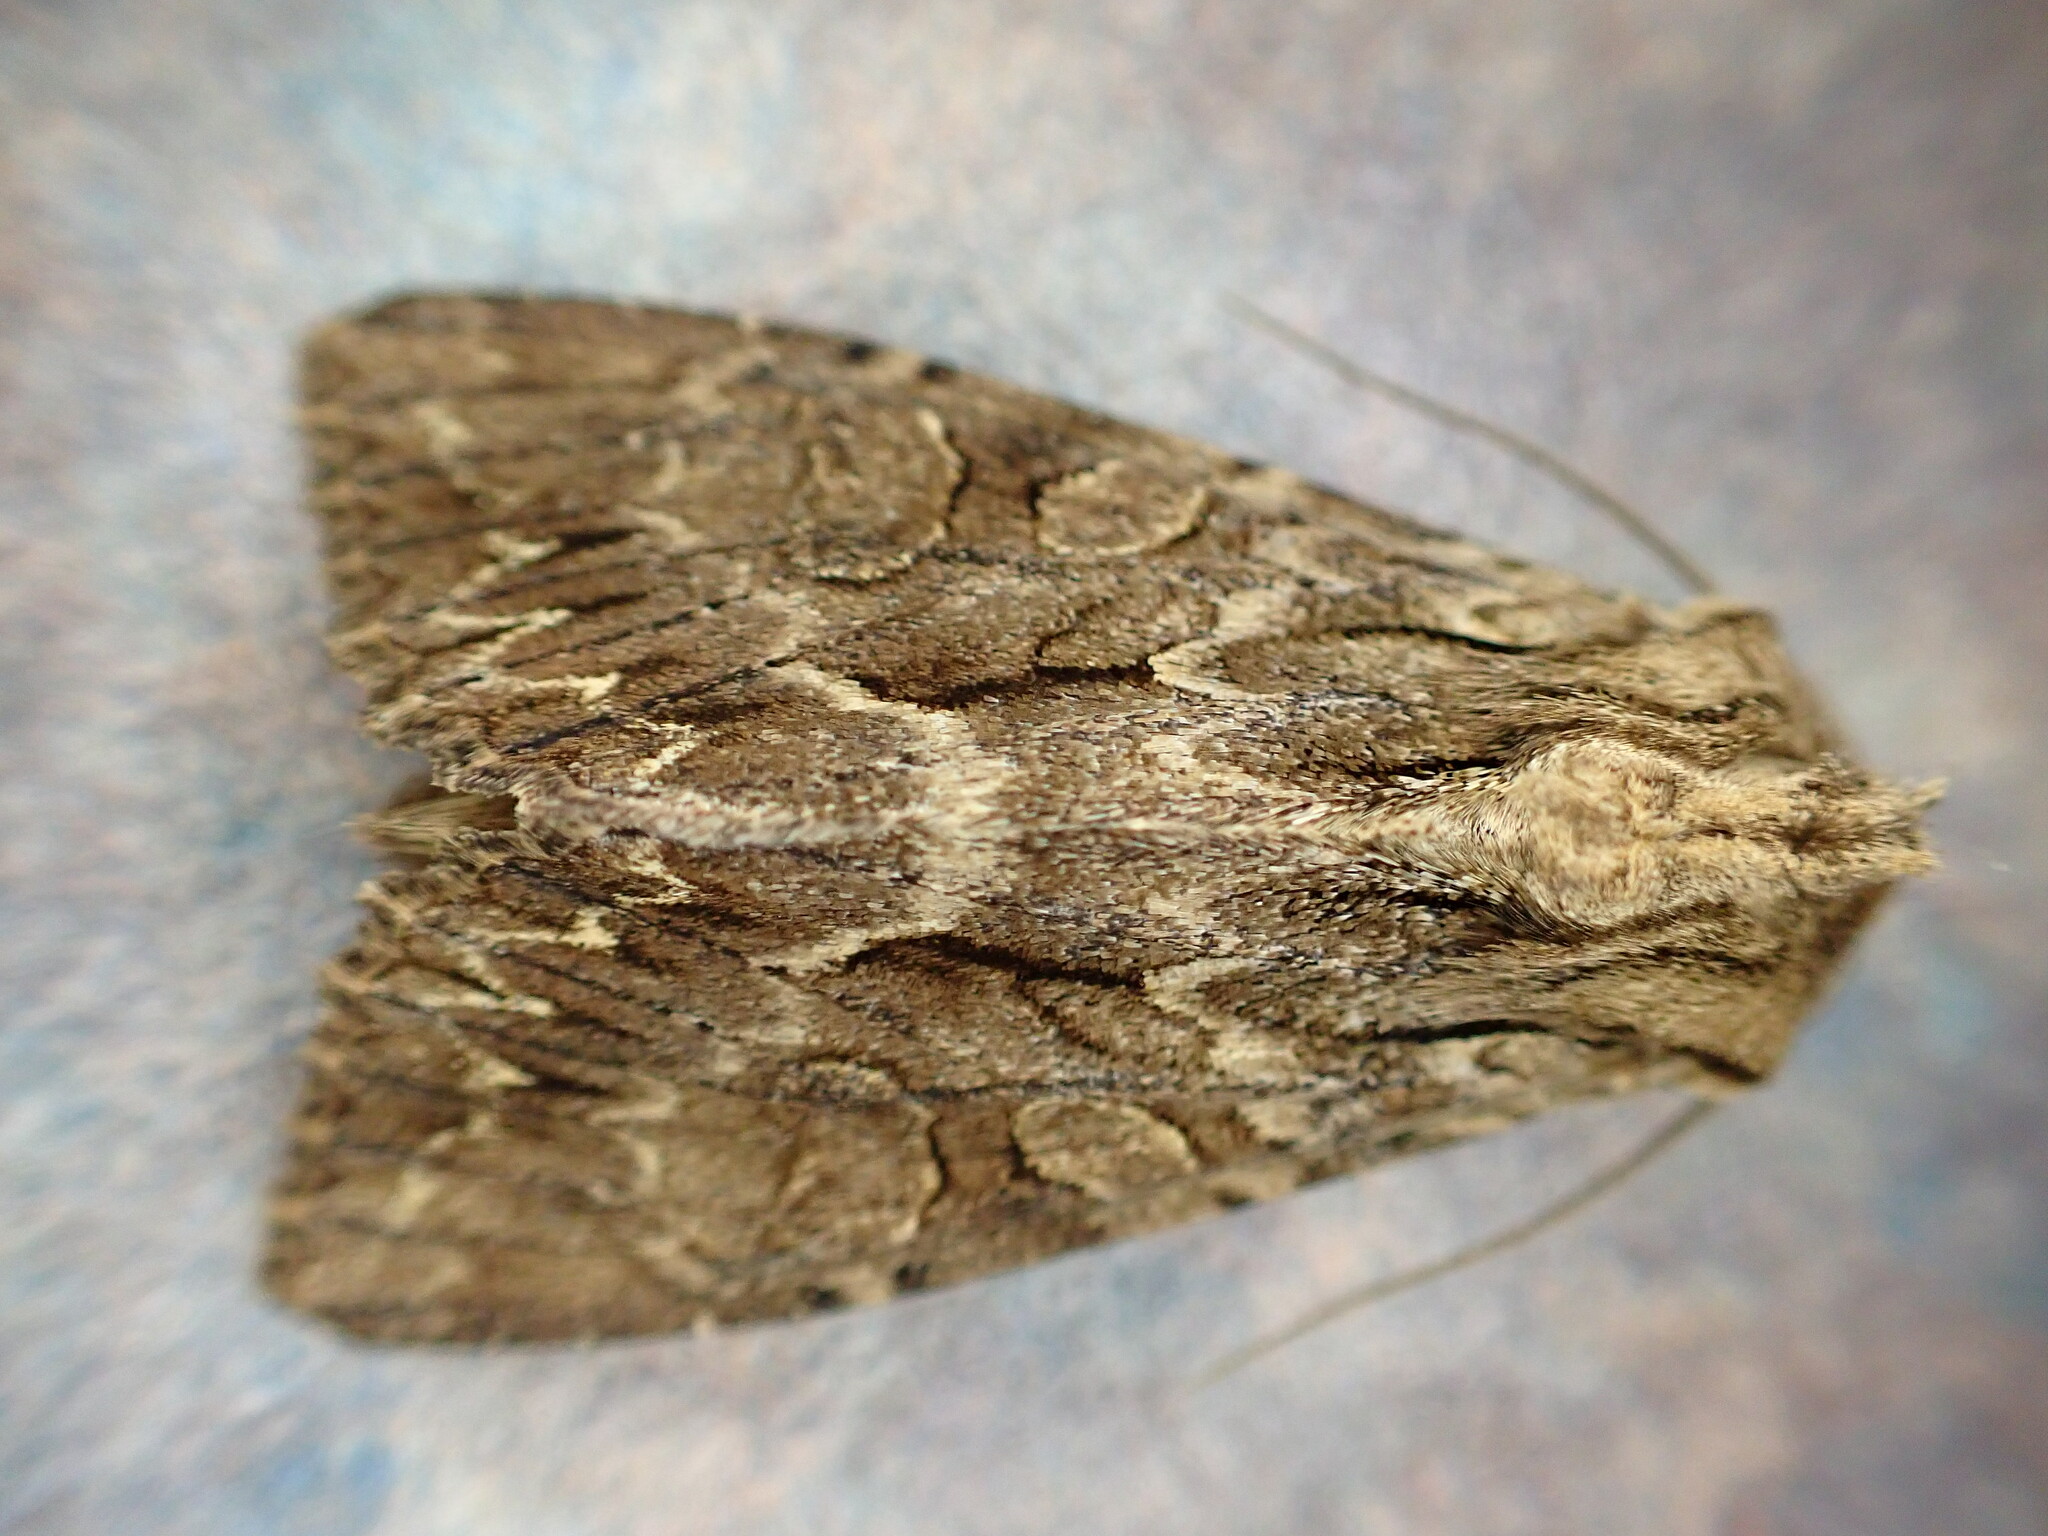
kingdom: Animalia
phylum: Arthropoda
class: Insecta
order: Lepidoptera
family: Noctuidae
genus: Apamea
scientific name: Apamea monoglypha
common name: Dark arches
